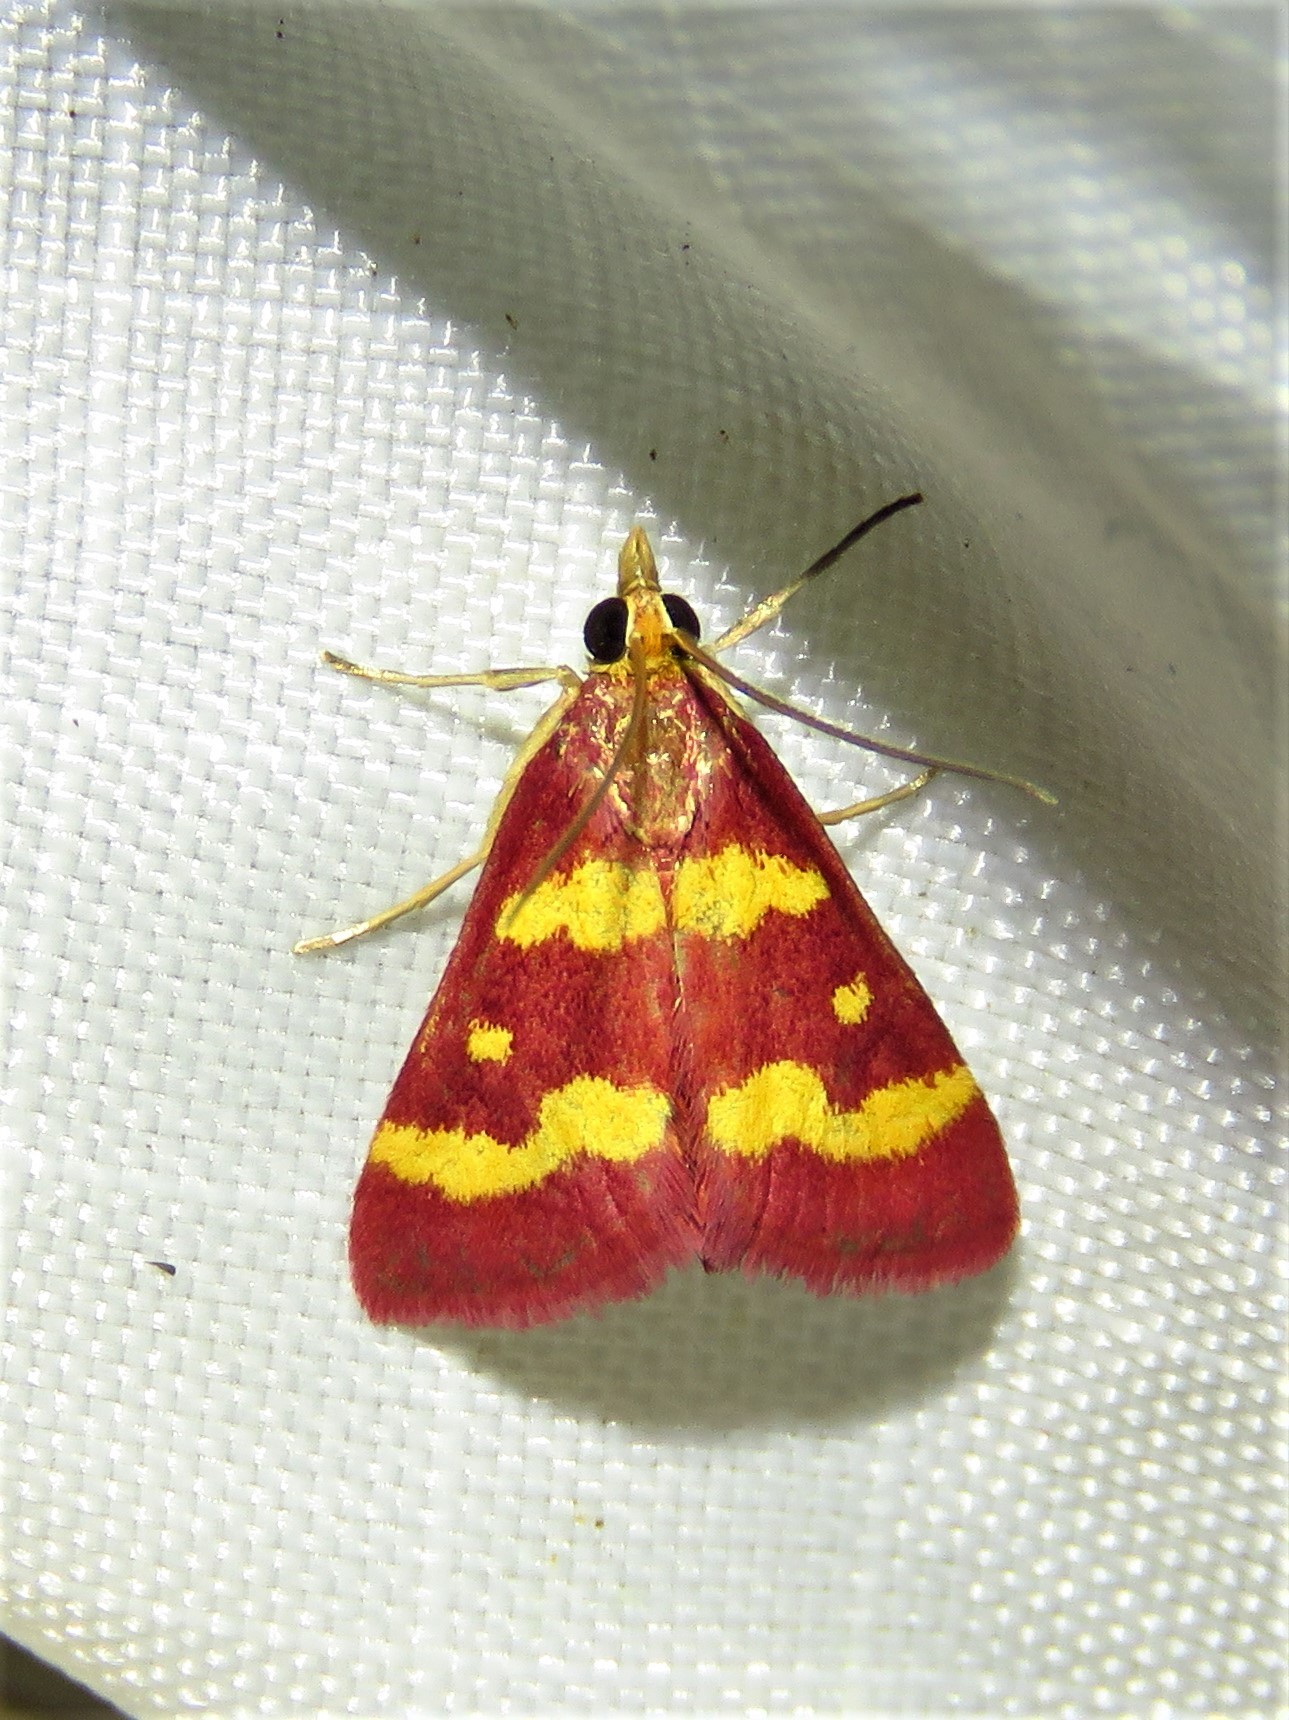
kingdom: Animalia
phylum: Arthropoda
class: Insecta
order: Lepidoptera
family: Crambidae
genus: Pyrausta
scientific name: Pyrausta tyralis
